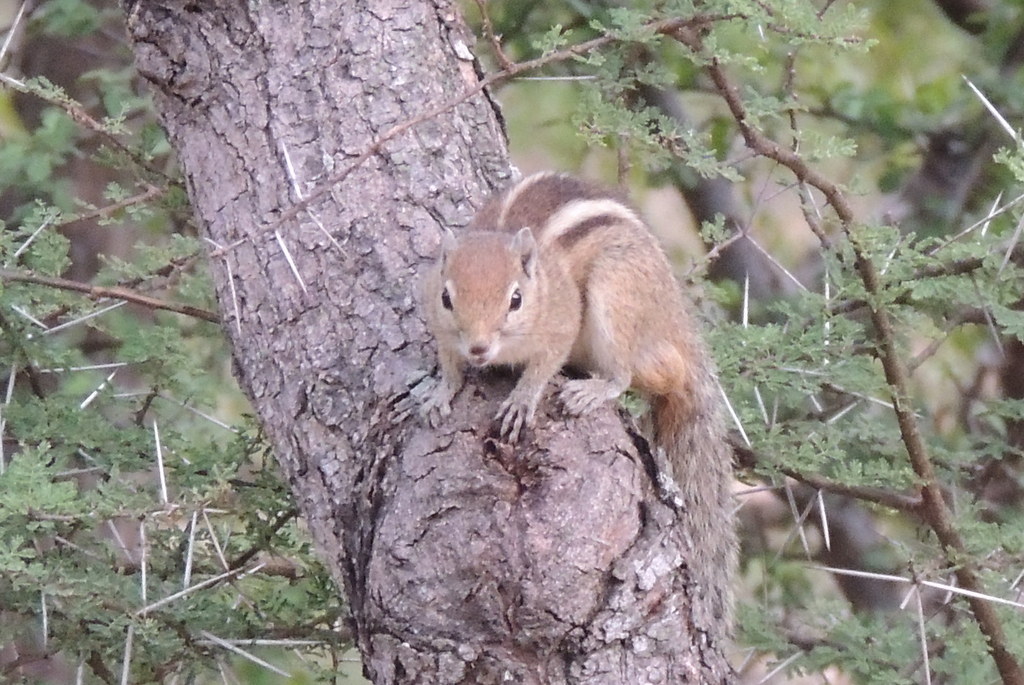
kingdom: Animalia
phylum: Chordata
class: Mammalia
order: Rodentia
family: Sciuridae
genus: Funambulus
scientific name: Funambulus palmarum
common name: Indian palm squirrel
